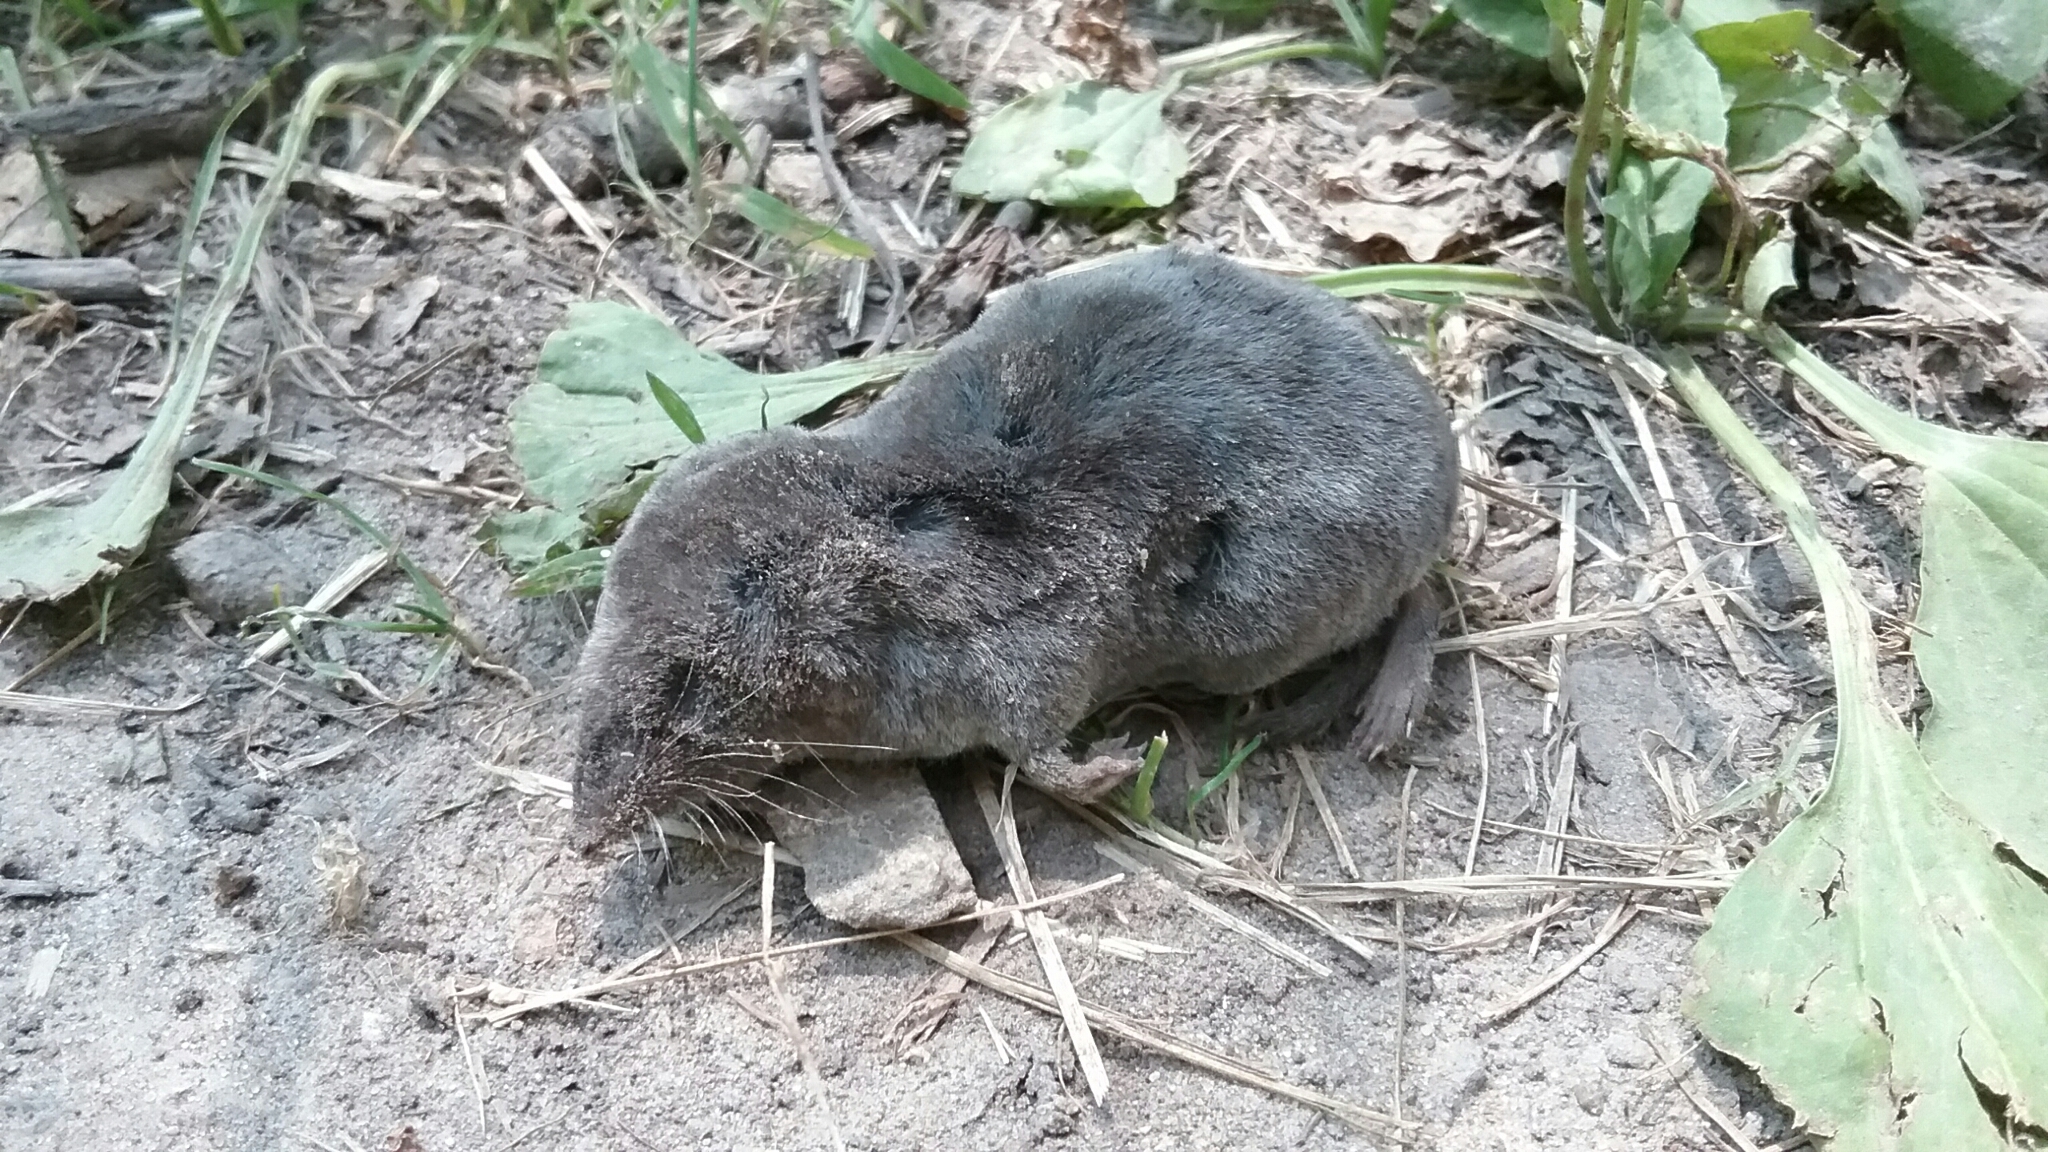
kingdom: Animalia
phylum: Chordata
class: Mammalia
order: Soricomorpha
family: Soricidae
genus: Blarina
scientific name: Blarina brevicauda
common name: Northern short-tailed shrew
